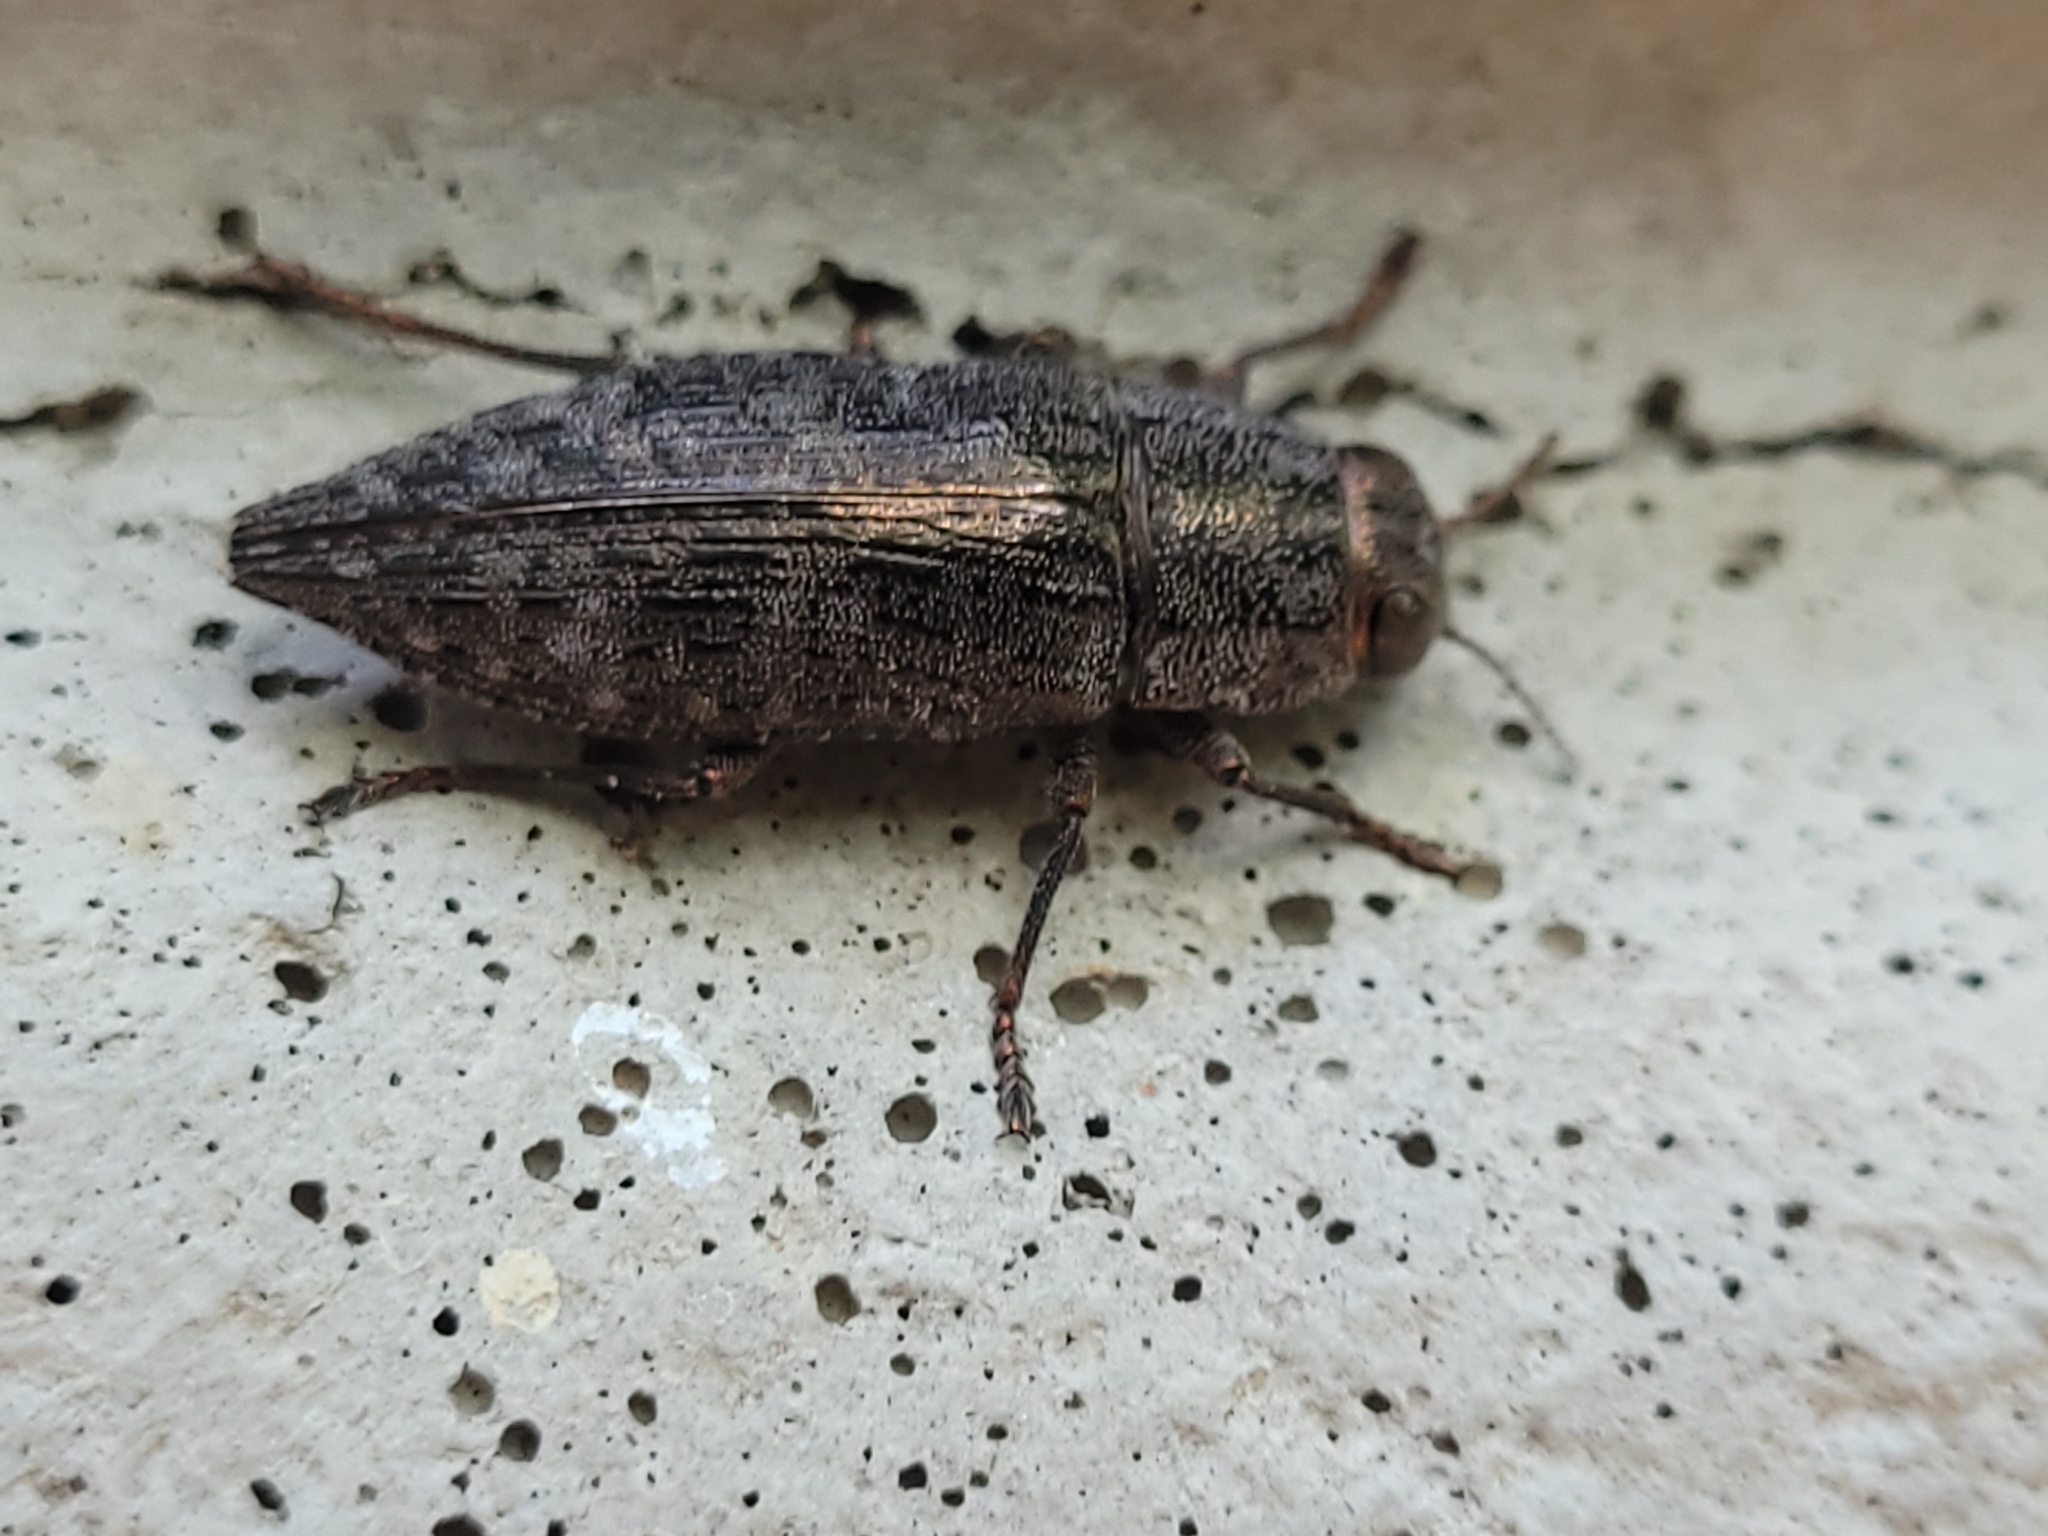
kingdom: Animalia
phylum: Arthropoda
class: Insecta
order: Coleoptera
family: Buprestidae
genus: Dicerca
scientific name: Dicerca lurida
